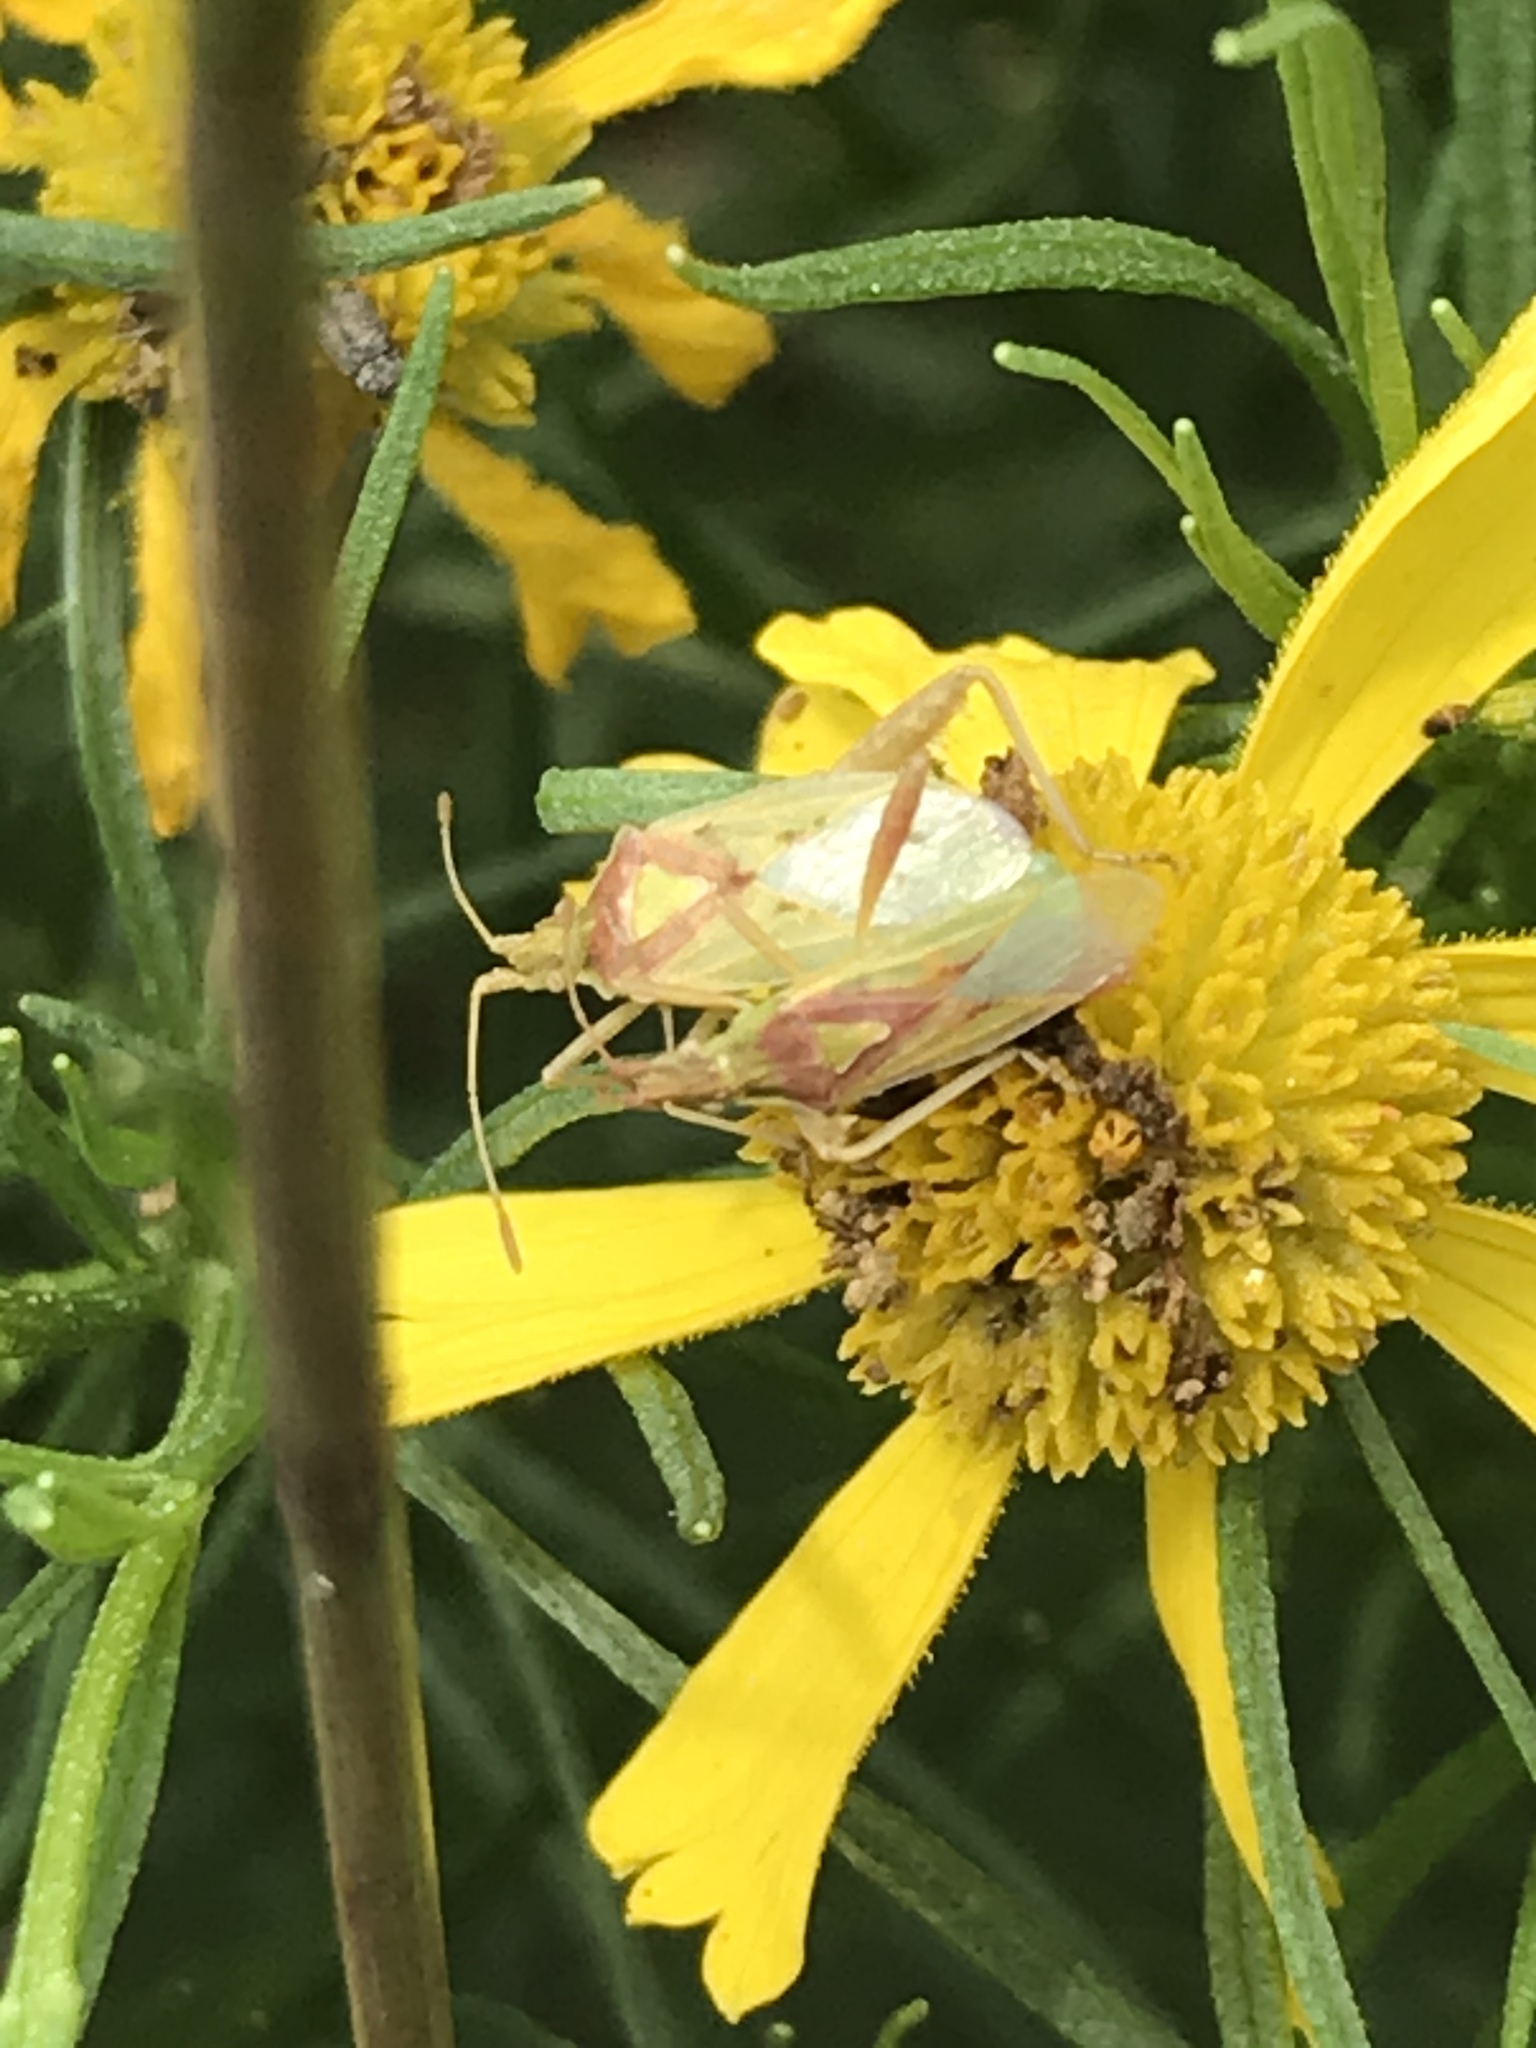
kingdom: Animalia
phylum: Arthropoda
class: Insecta
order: Hemiptera
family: Rhopalidae
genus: Harmostes
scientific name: Harmostes reflexulus
